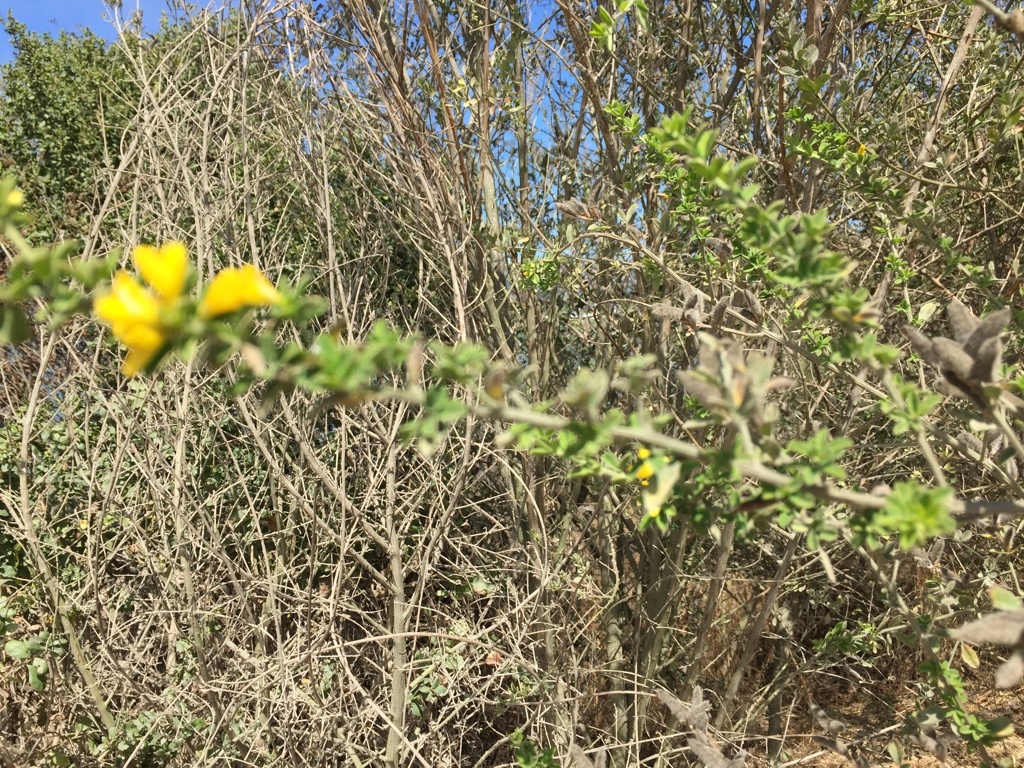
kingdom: Plantae
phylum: Tracheophyta
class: Magnoliopsida
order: Fabales
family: Fabaceae
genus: Genista
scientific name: Genista monspessulana
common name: Montpellier broom
